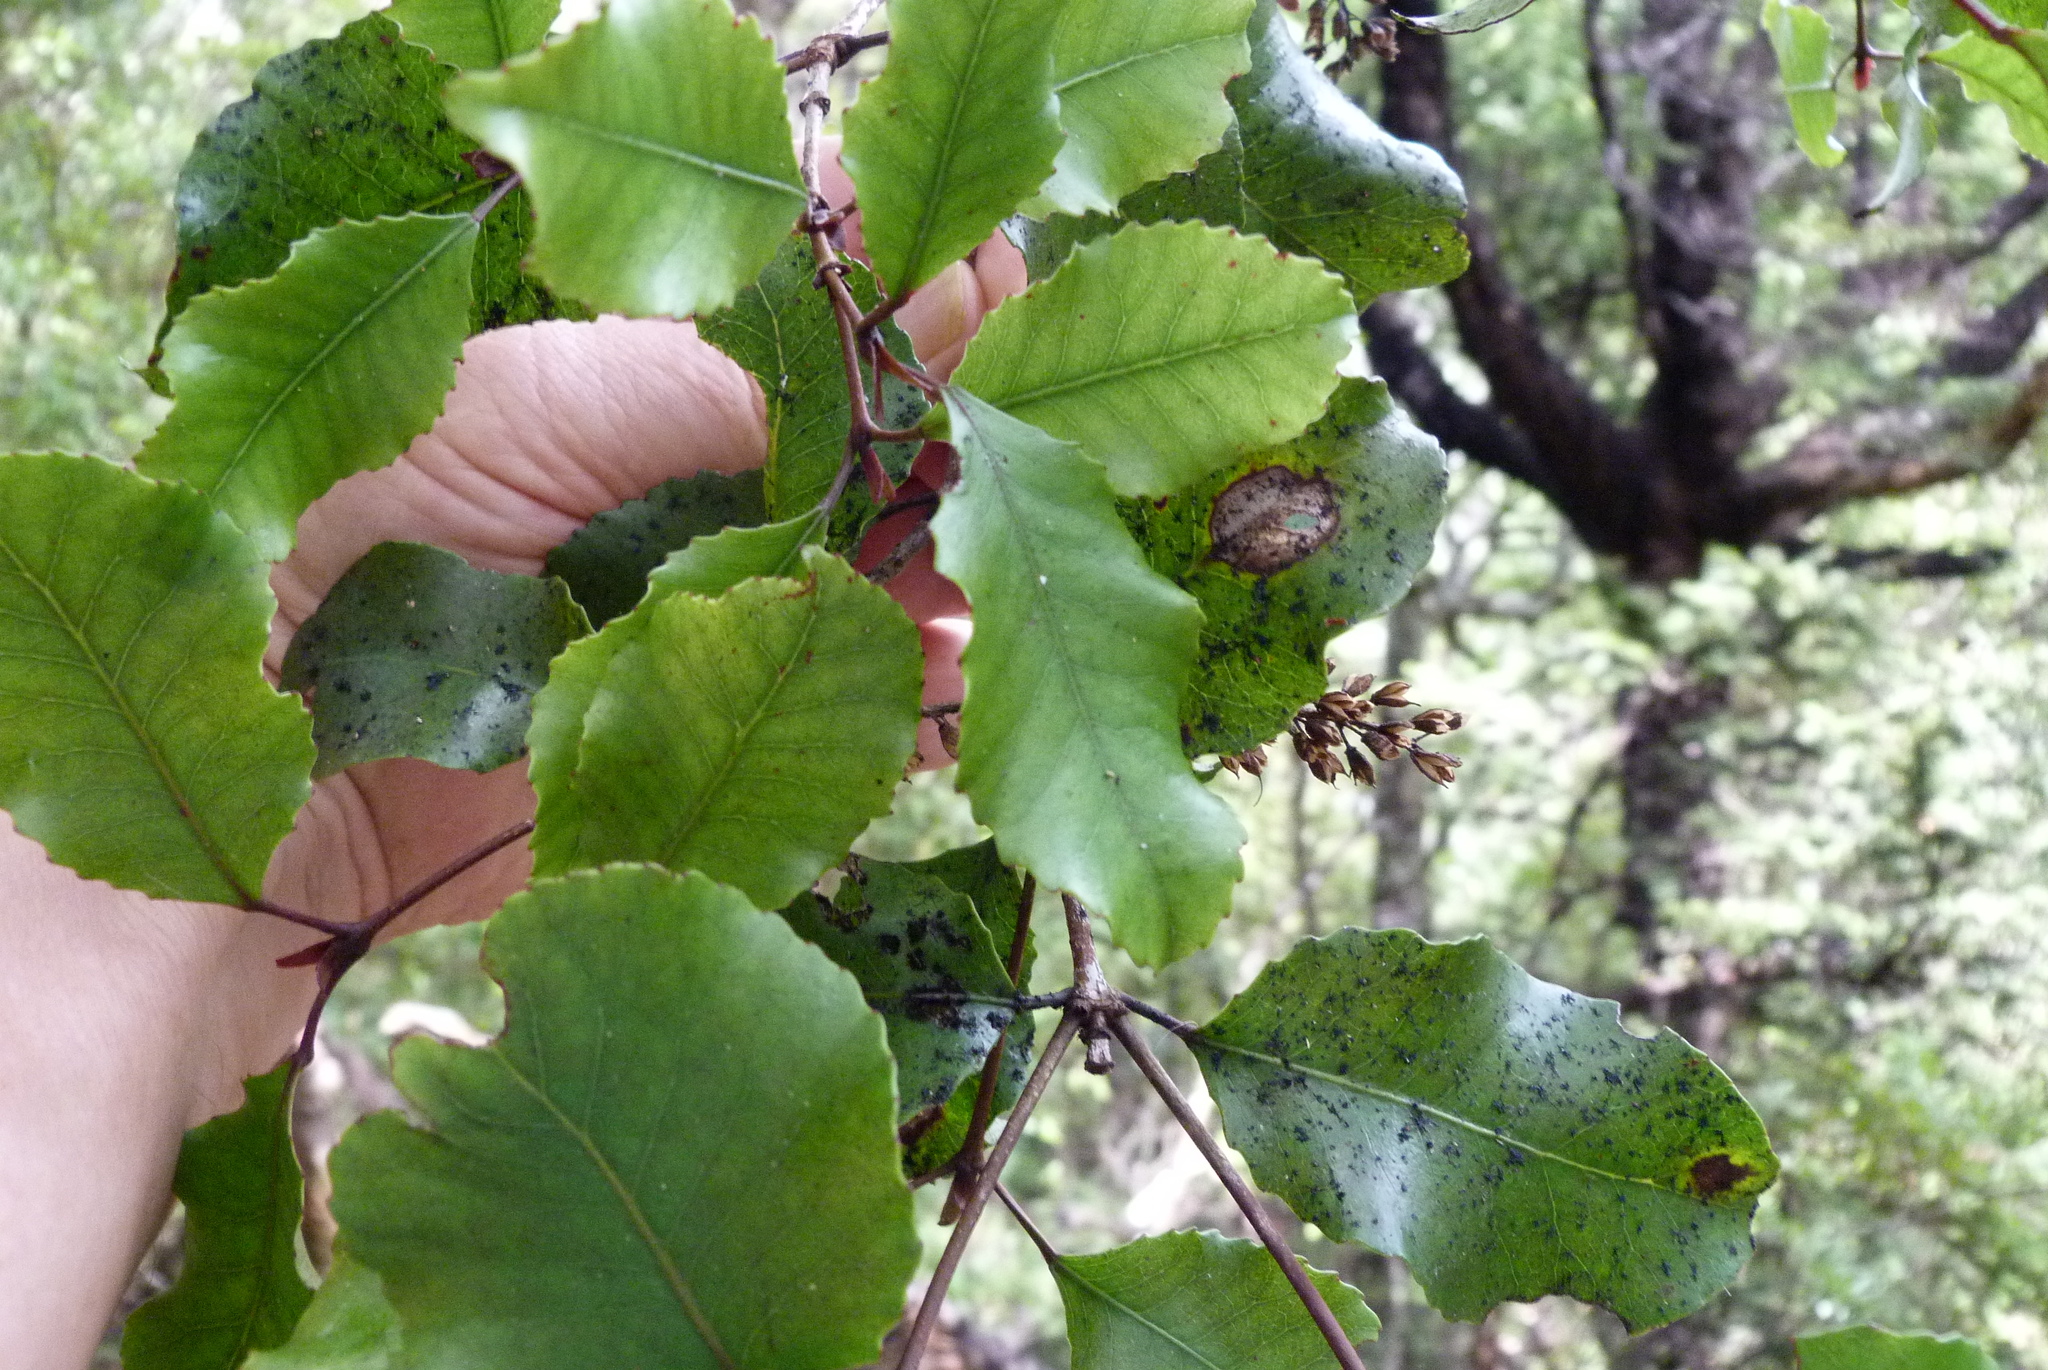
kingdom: Plantae
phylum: Tracheophyta
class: Magnoliopsida
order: Oxalidales
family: Cunoniaceae
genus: Pterophylla
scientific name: Pterophylla racemosa
